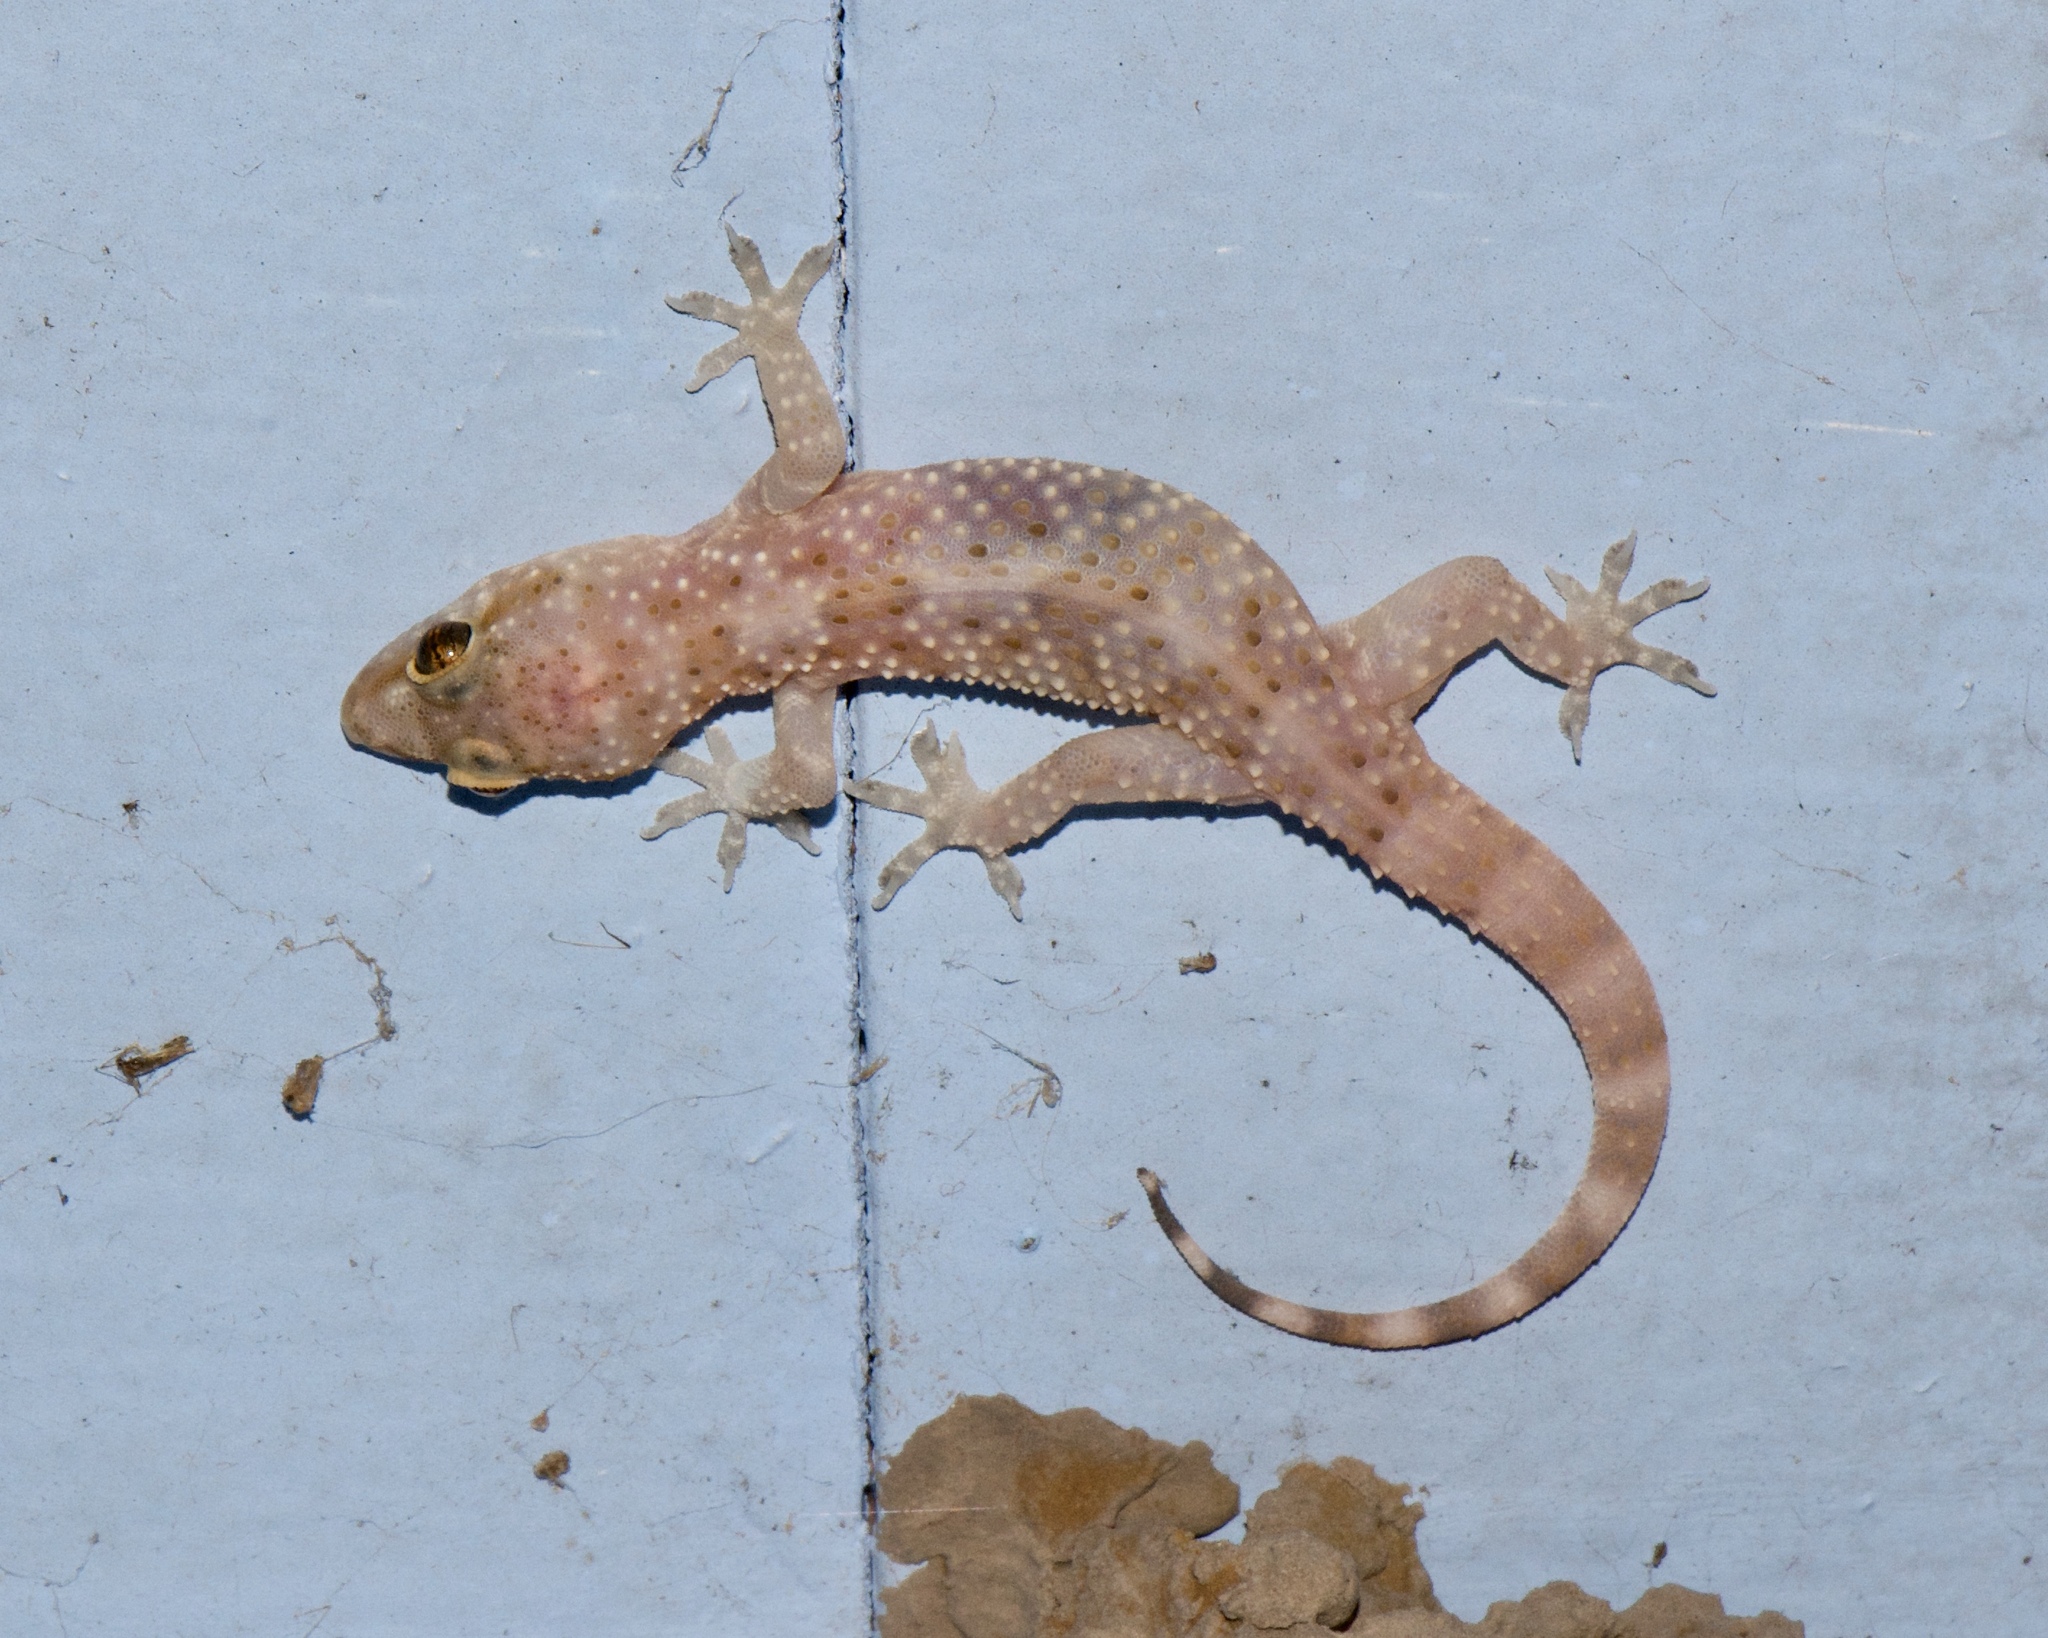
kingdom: Animalia
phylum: Chordata
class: Squamata
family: Gekkonidae
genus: Hemidactylus
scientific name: Hemidactylus turcicus
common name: Turkish gecko
